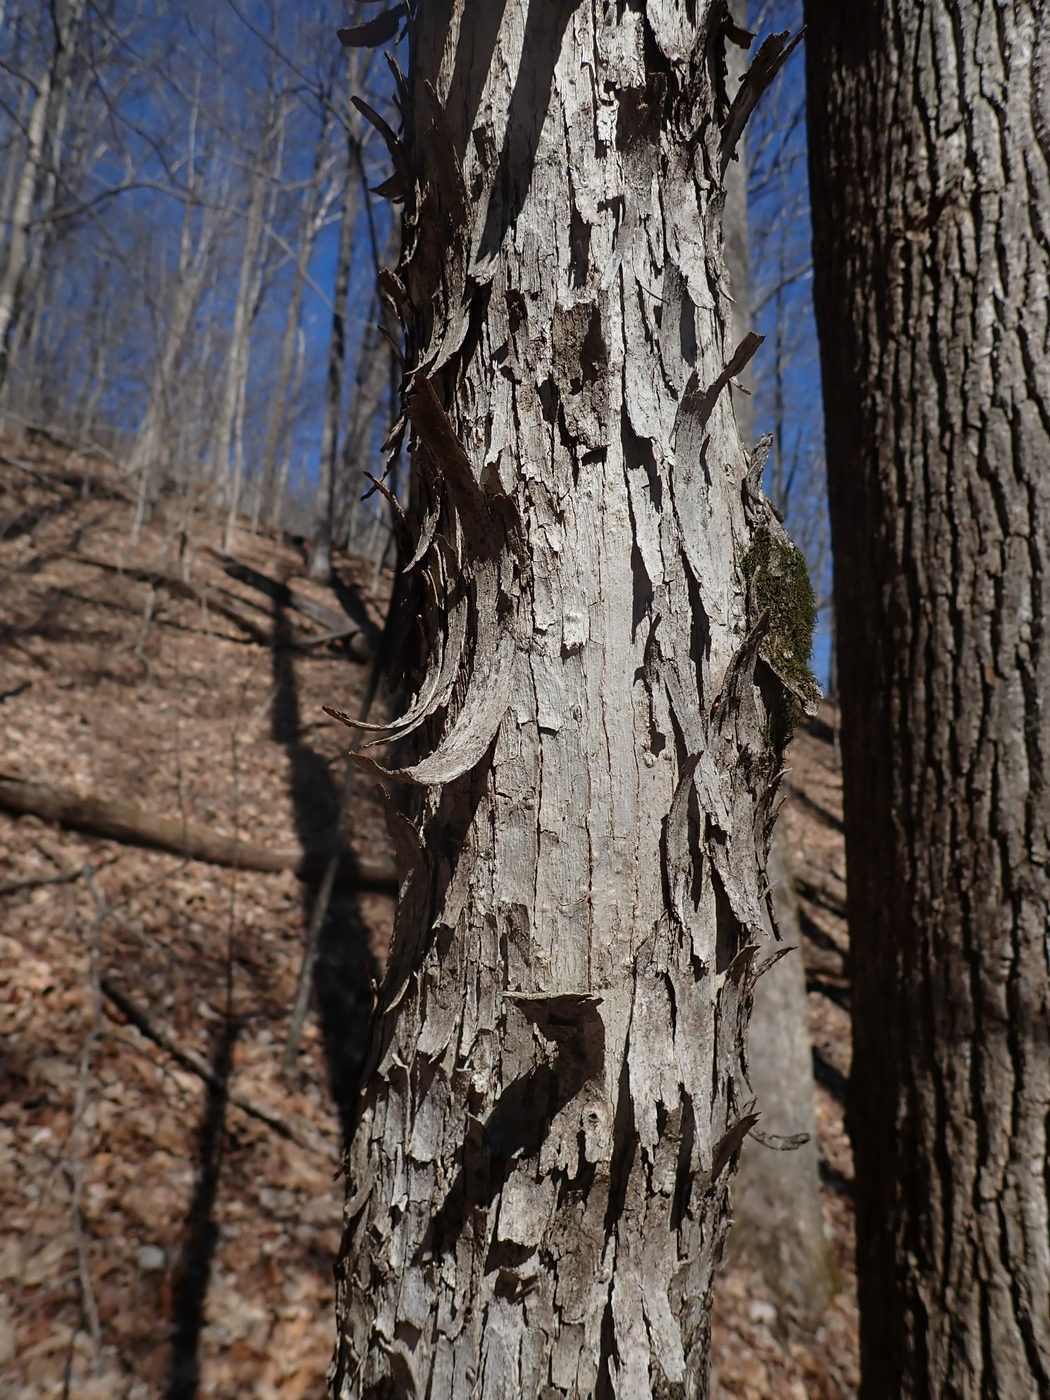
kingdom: Plantae
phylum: Tracheophyta
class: Magnoliopsida
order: Fagales
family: Betulaceae
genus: Ostrya
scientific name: Ostrya virginiana
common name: Ironwood
